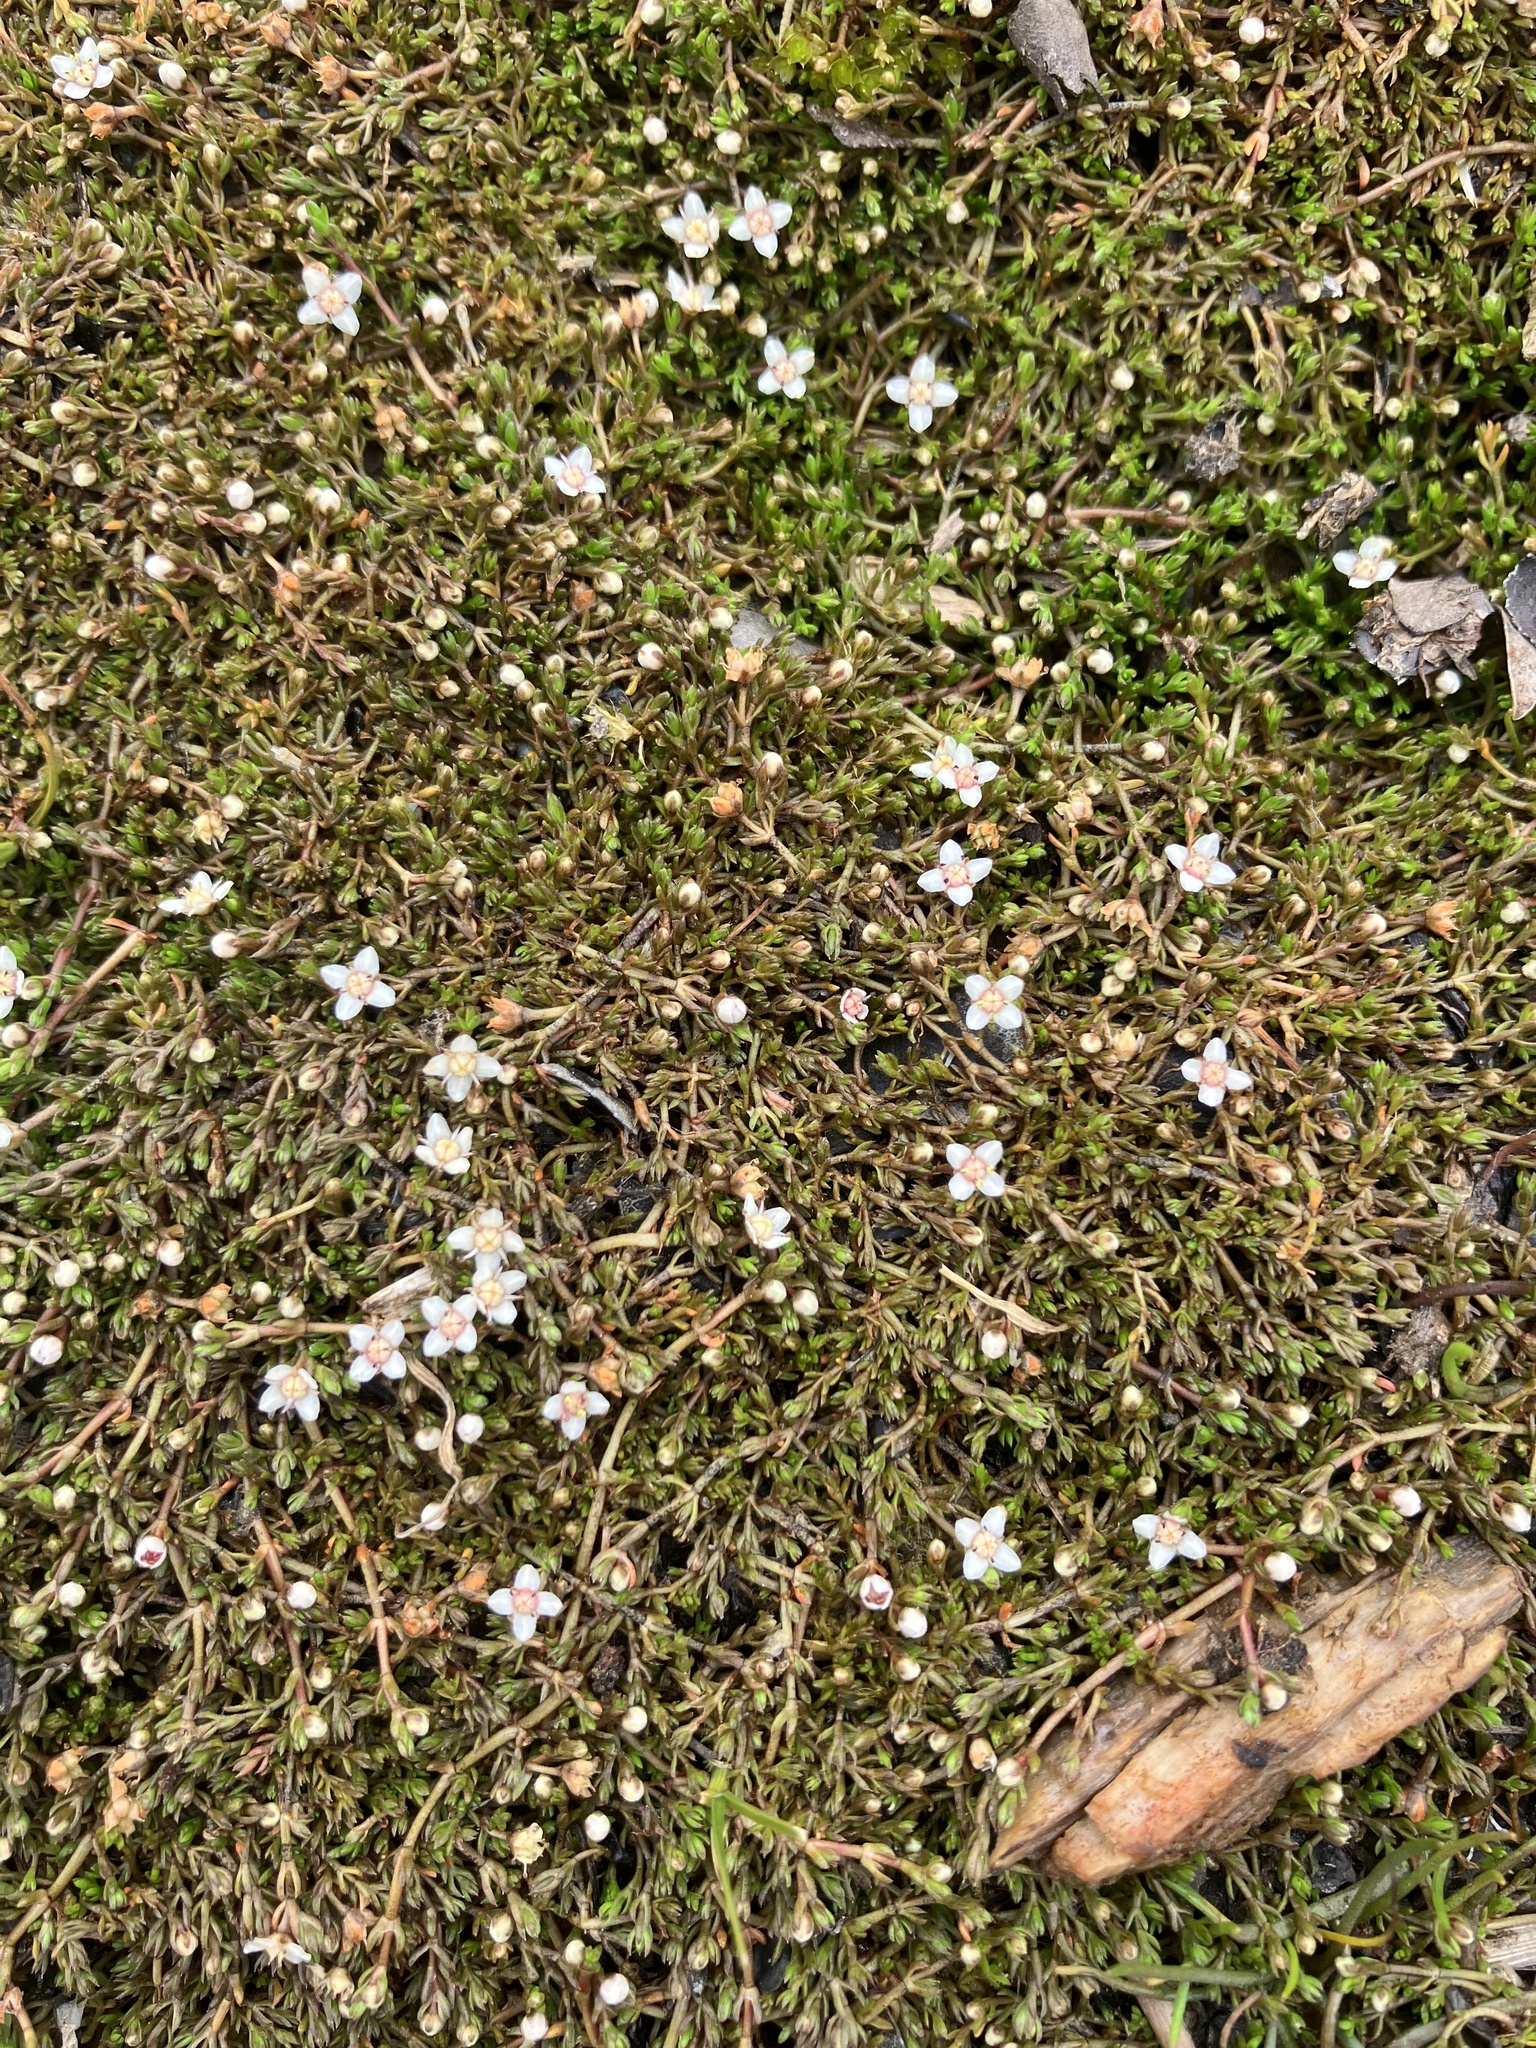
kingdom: Plantae
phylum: Tracheophyta
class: Magnoliopsida
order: Saxifragales
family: Crassulaceae
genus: Crassula
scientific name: Crassula sinclairii
